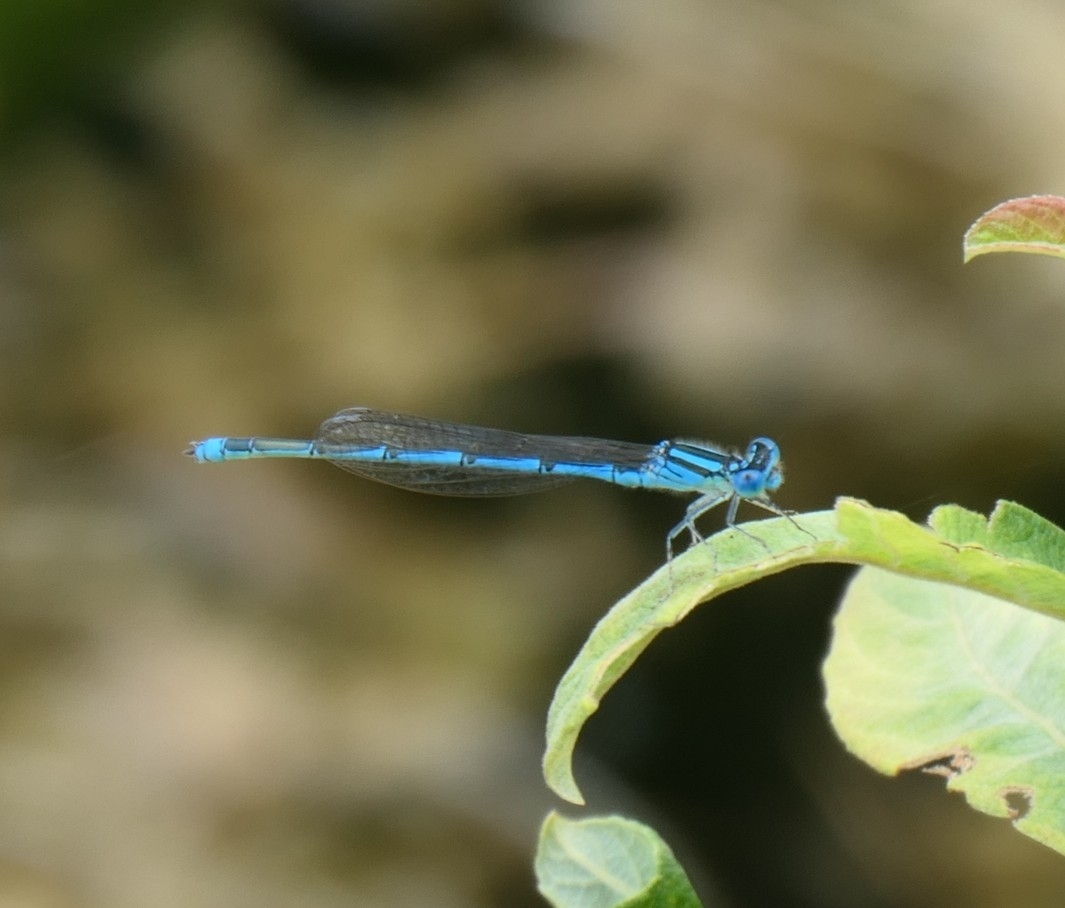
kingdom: Animalia
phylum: Arthropoda
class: Insecta
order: Odonata
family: Coenagrionidae
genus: Erythromma
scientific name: Erythromma lindenii
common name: Blue-eye
